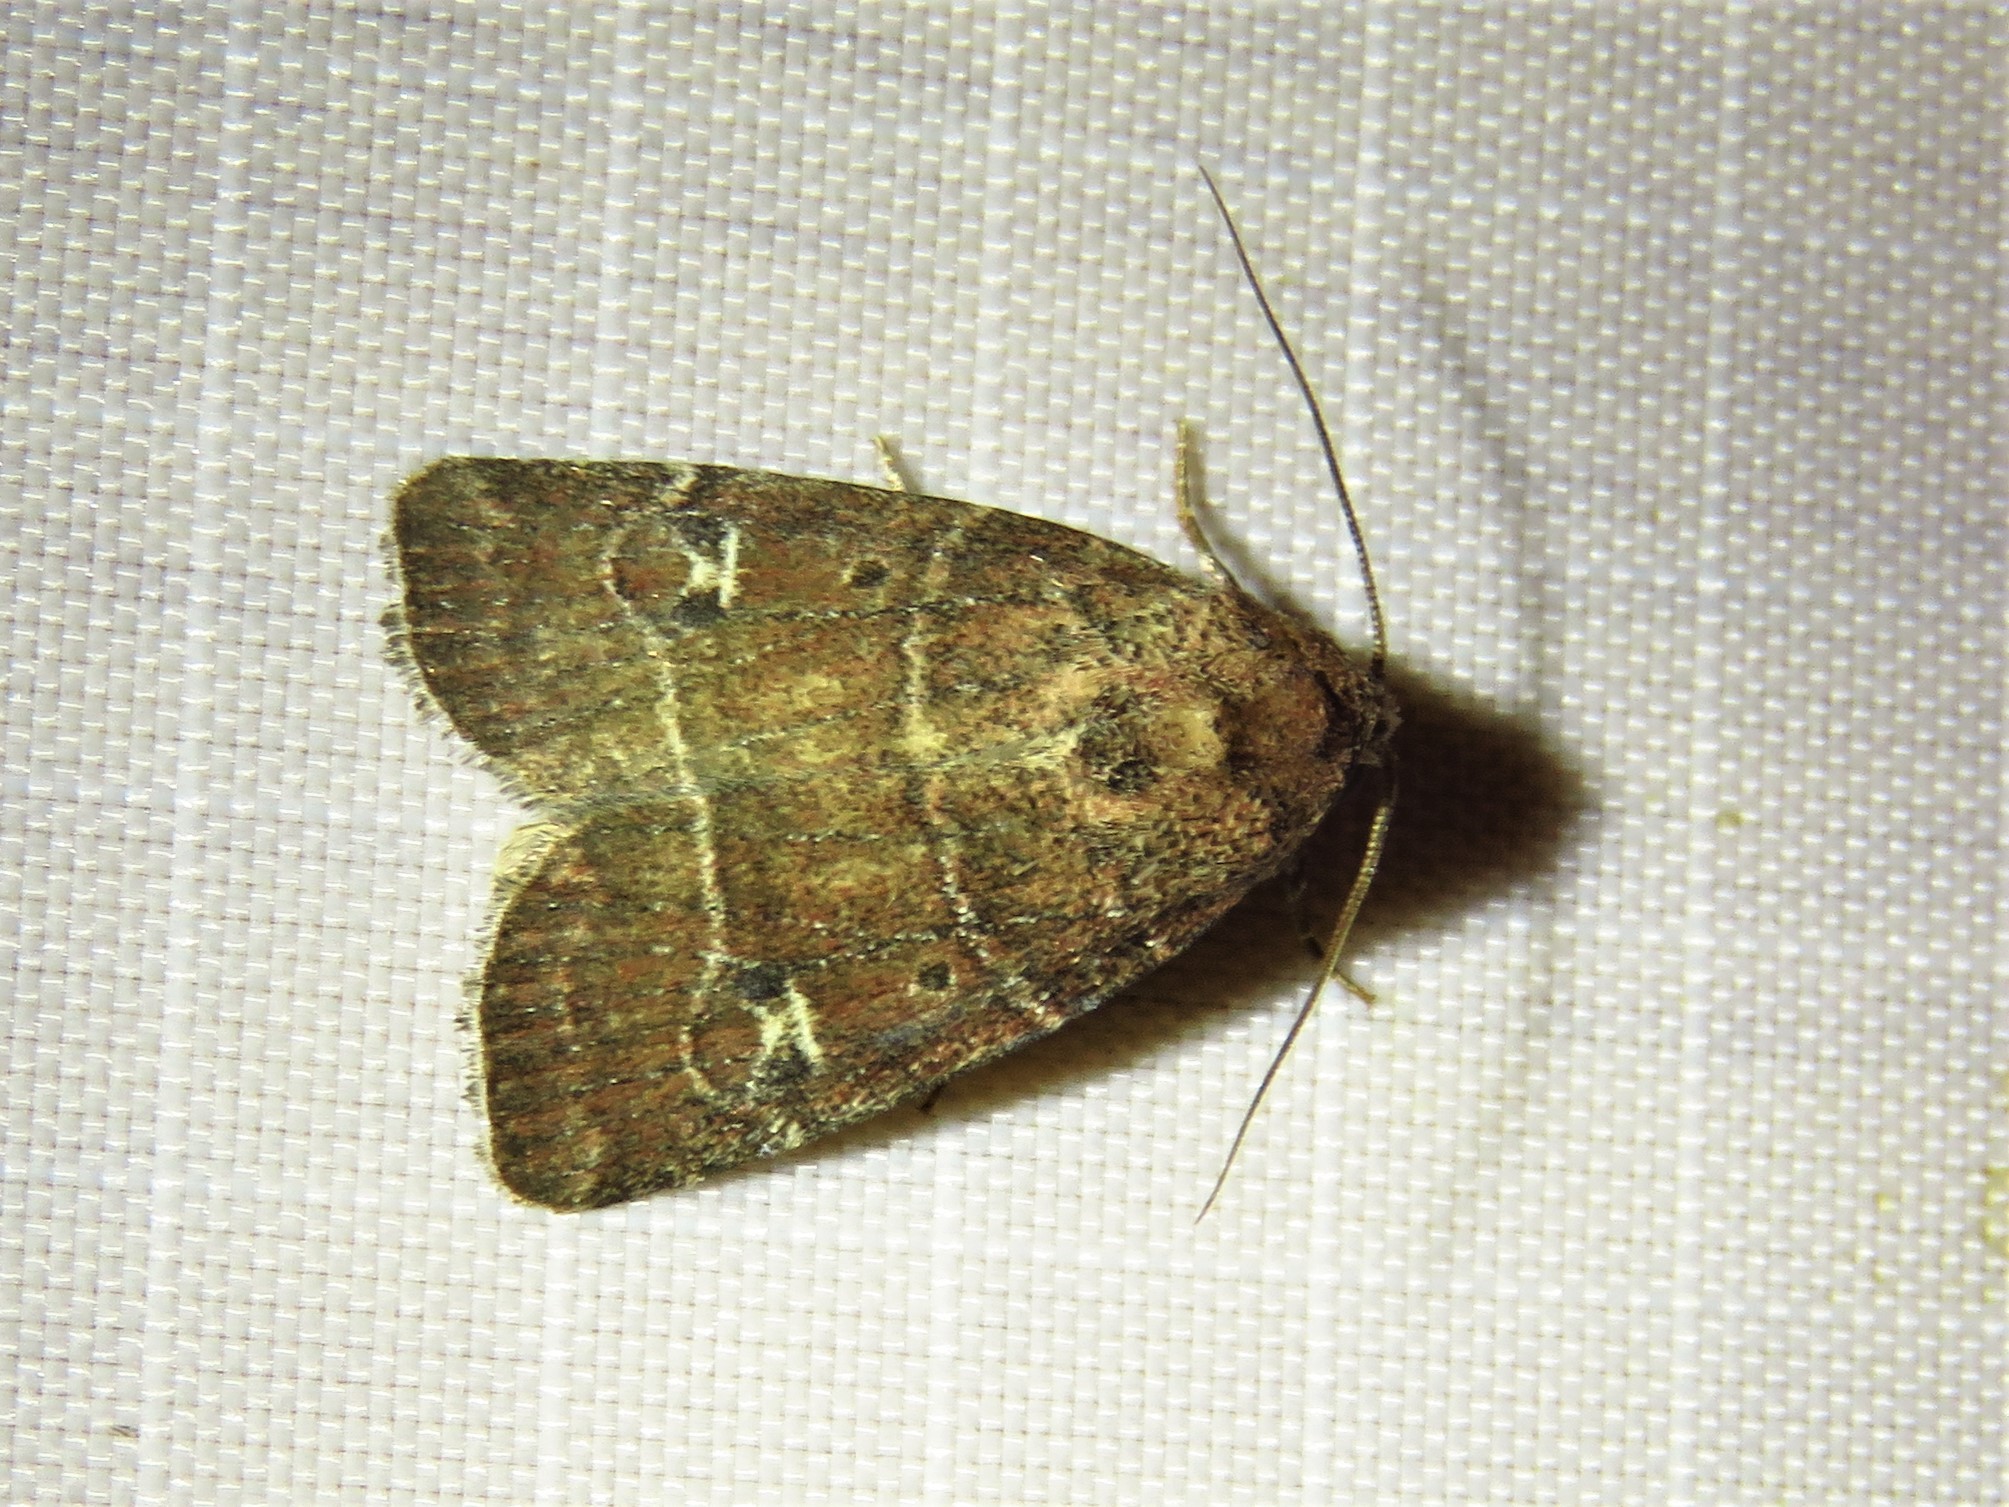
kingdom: Animalia
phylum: Arthropoda
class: Insecta
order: Lepidoptera
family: Noctuidae
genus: Elaphria
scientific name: Elaphria grata
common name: Grateful midget moth
